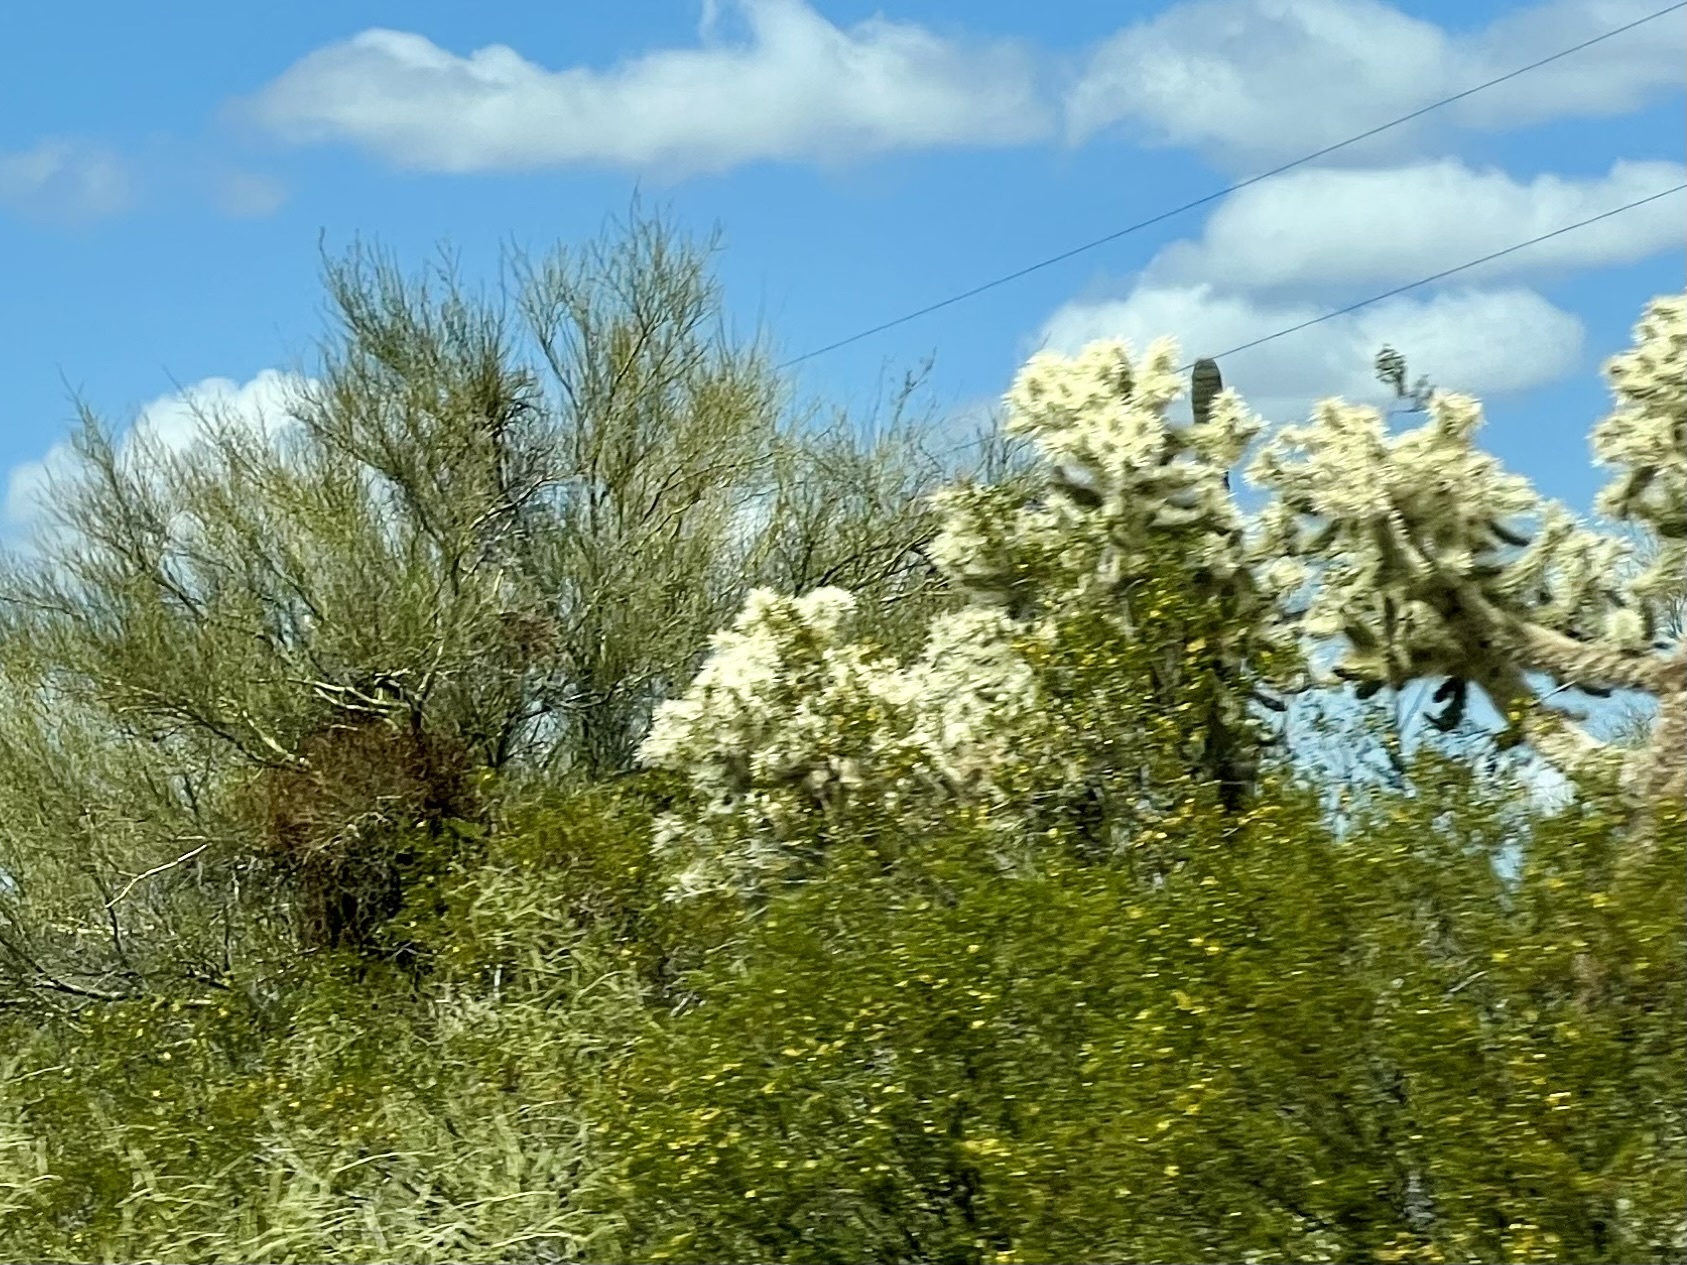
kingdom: Plantae
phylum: Tracheophyta
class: Magnoliopsida
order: Caryophyllales
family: Cactaceae
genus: Cylindropuntia
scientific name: Cylindropuntia fulgida
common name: Jumping cholla
